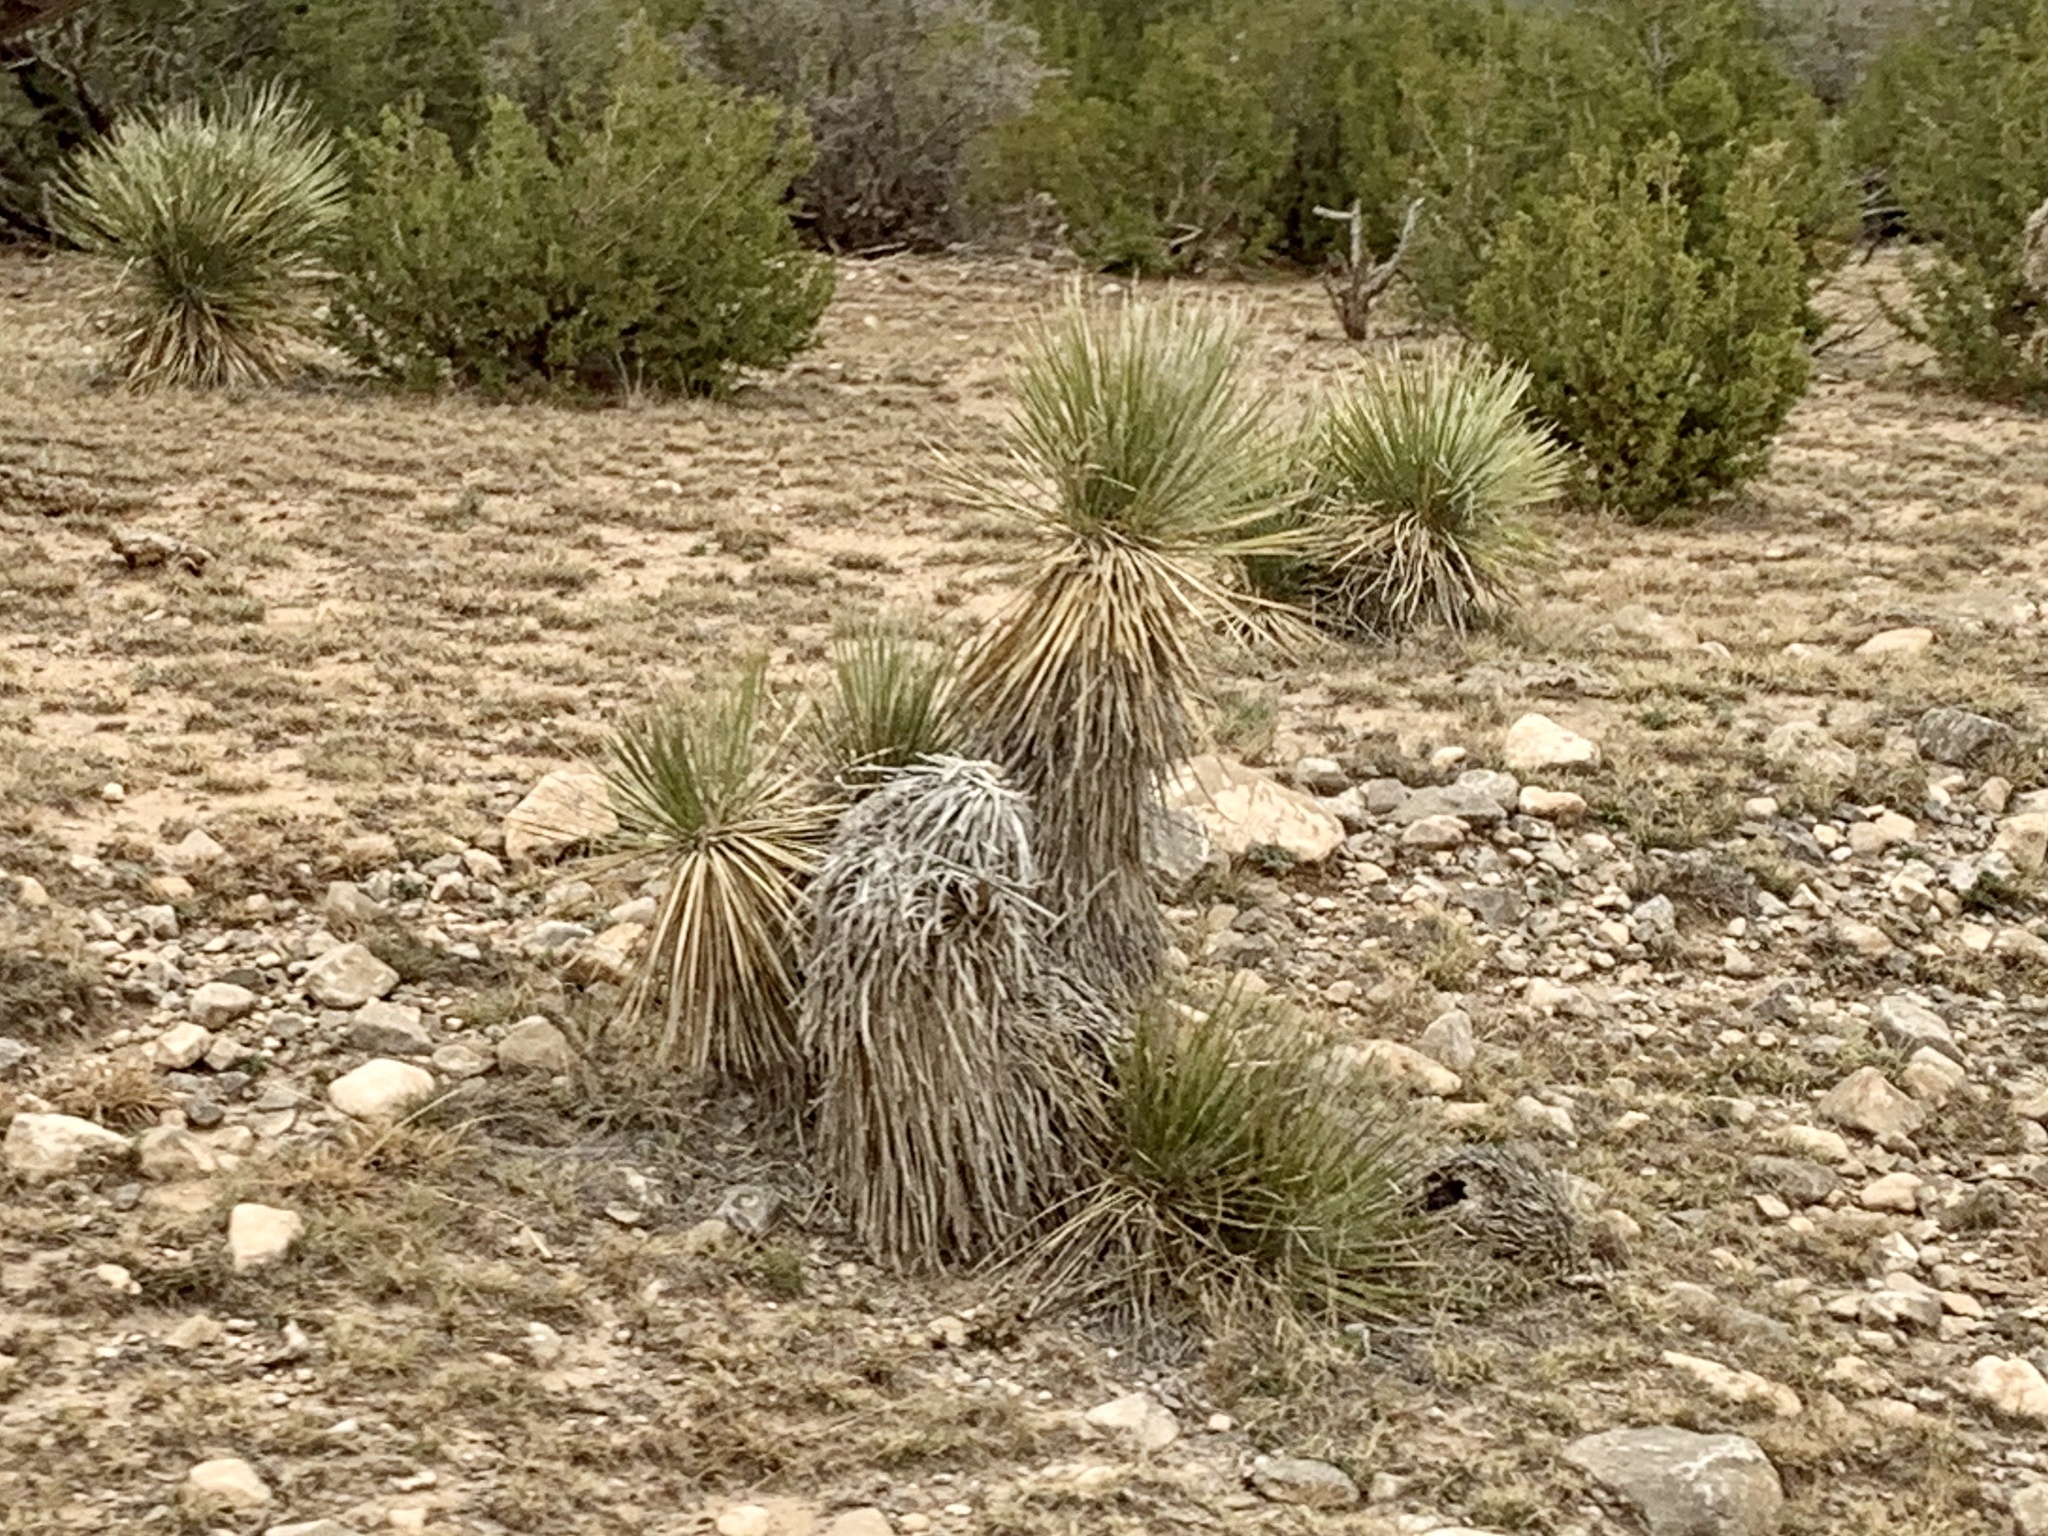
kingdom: Plantae
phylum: Tracheophyta
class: Liliopsida
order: Asparagales
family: Asparagaceae
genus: Yucca
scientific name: Yucca elata
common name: Palmella
